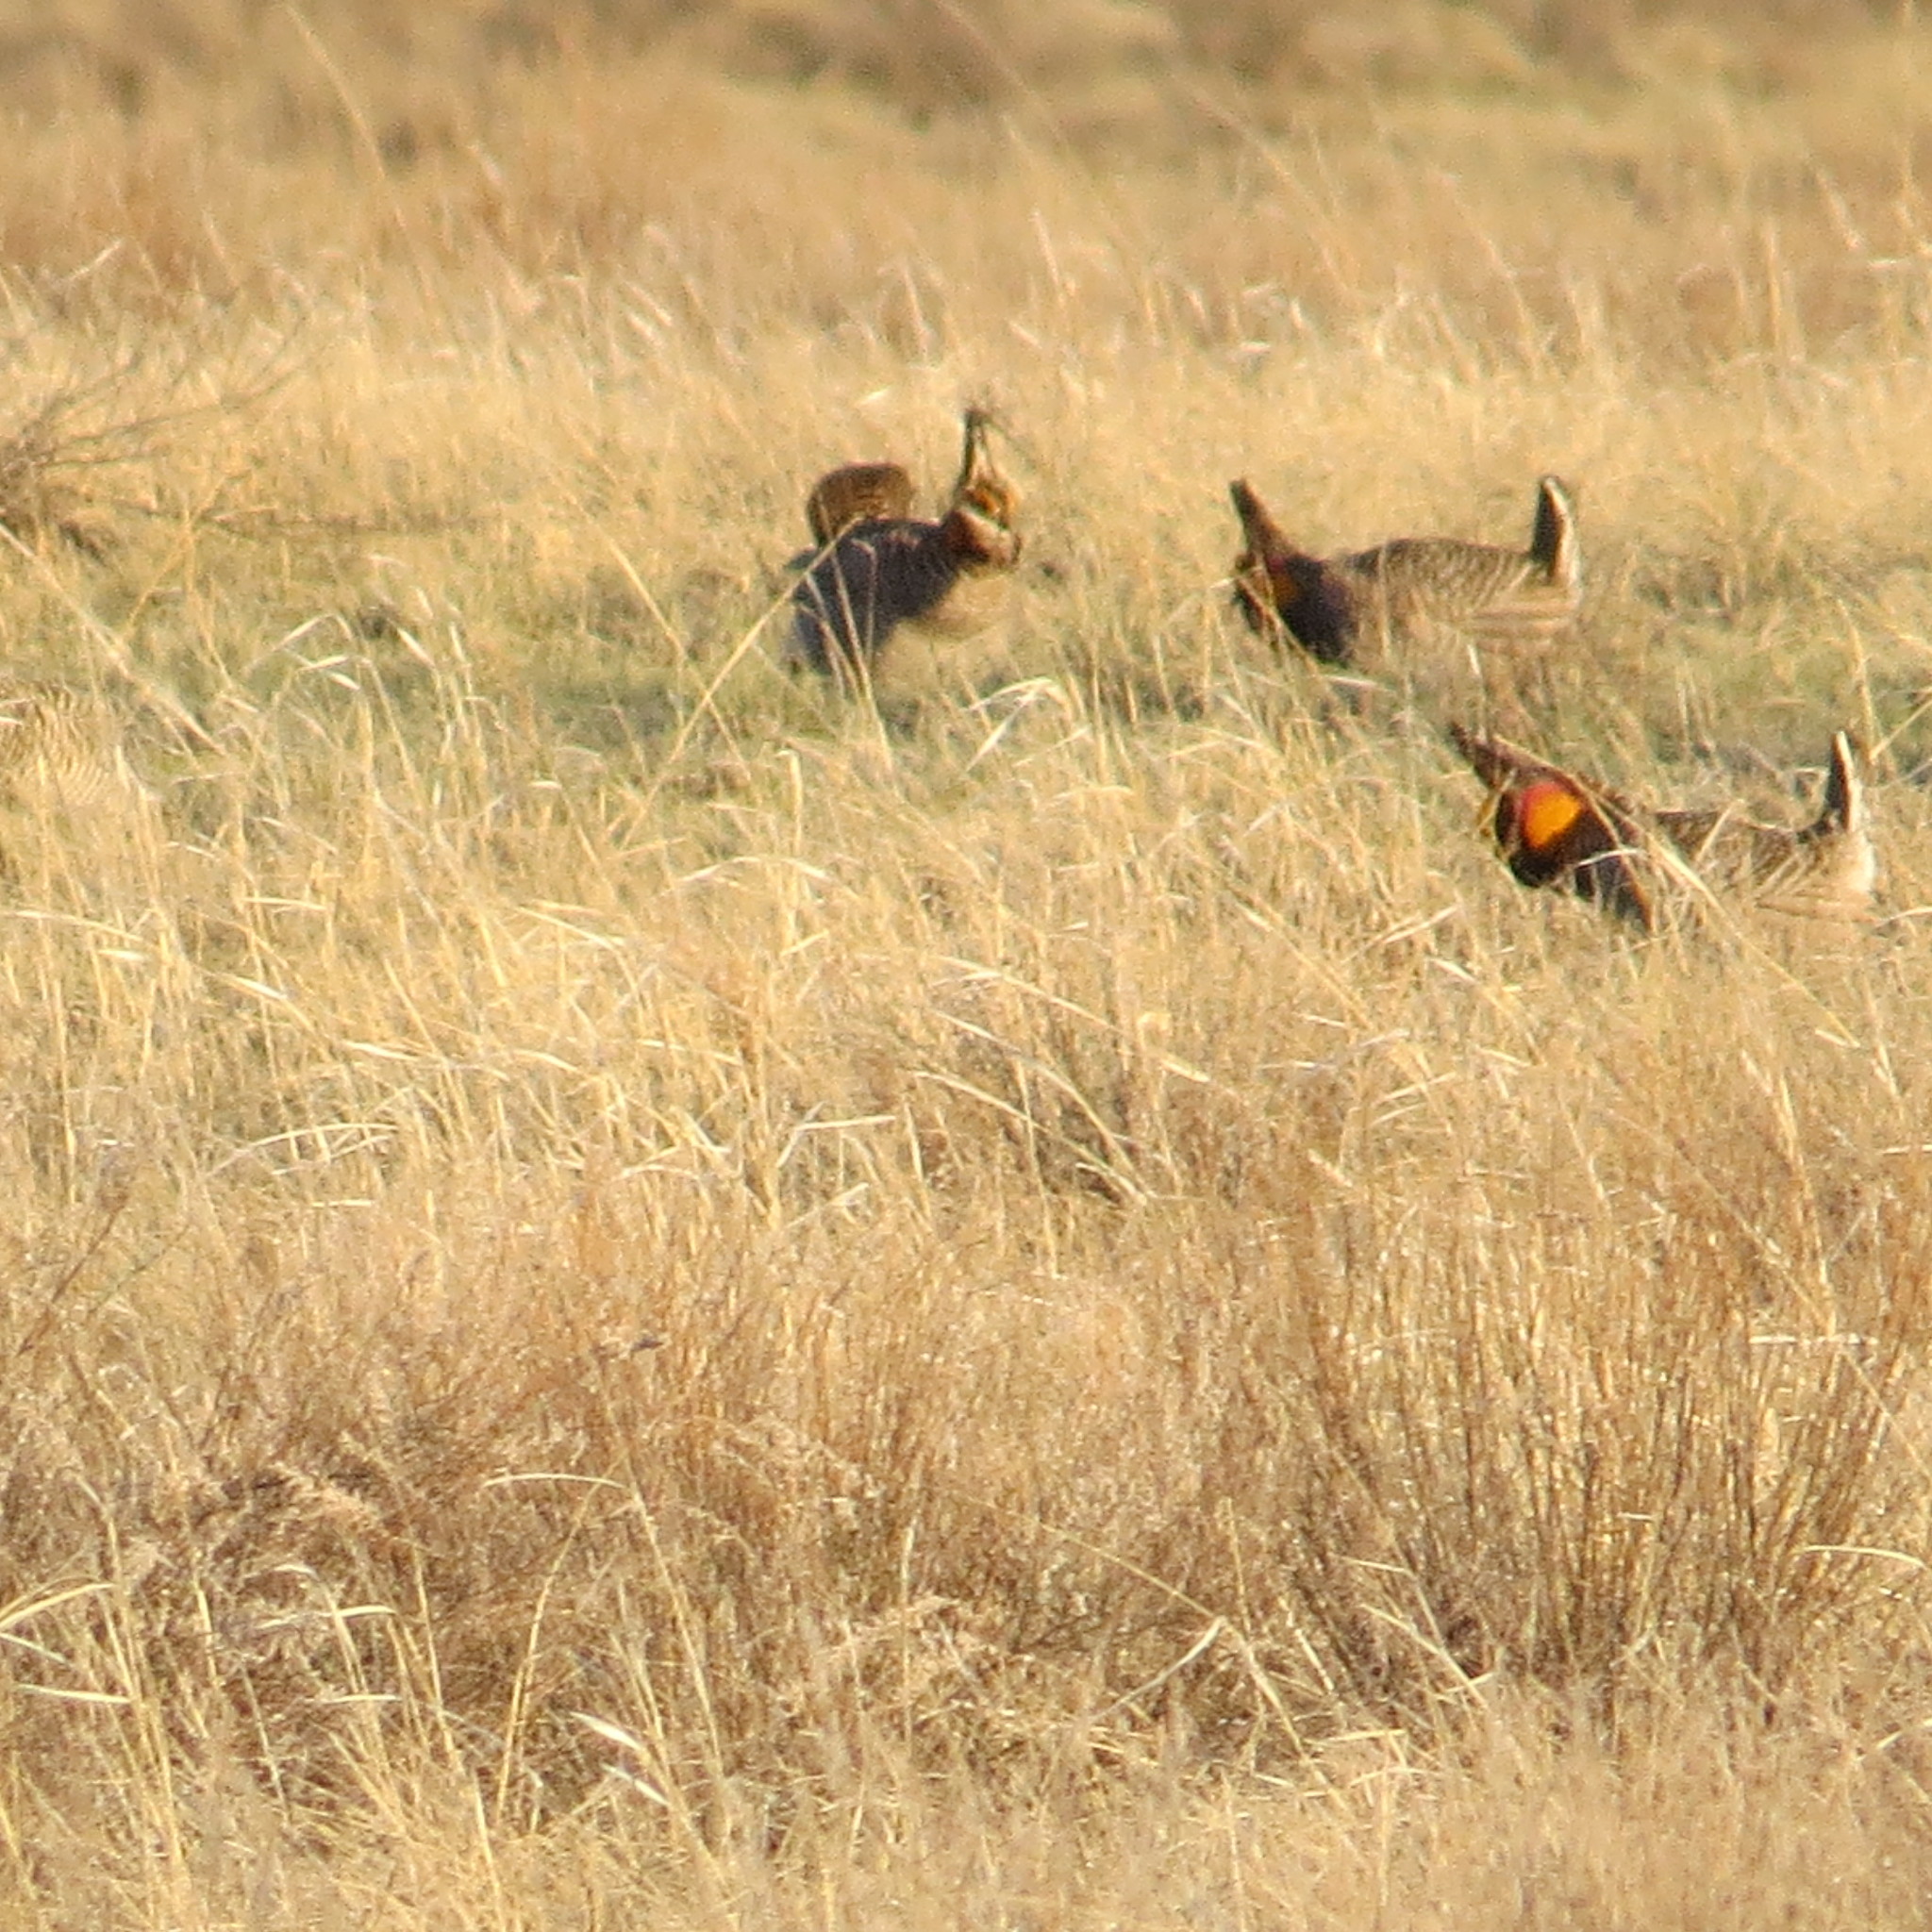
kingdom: Animalia
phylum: Chordata
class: Aves
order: Galliformes
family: Phasianidae
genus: Tympanuchus
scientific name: Tympanuchus cupido
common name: Greater prairie chicken
